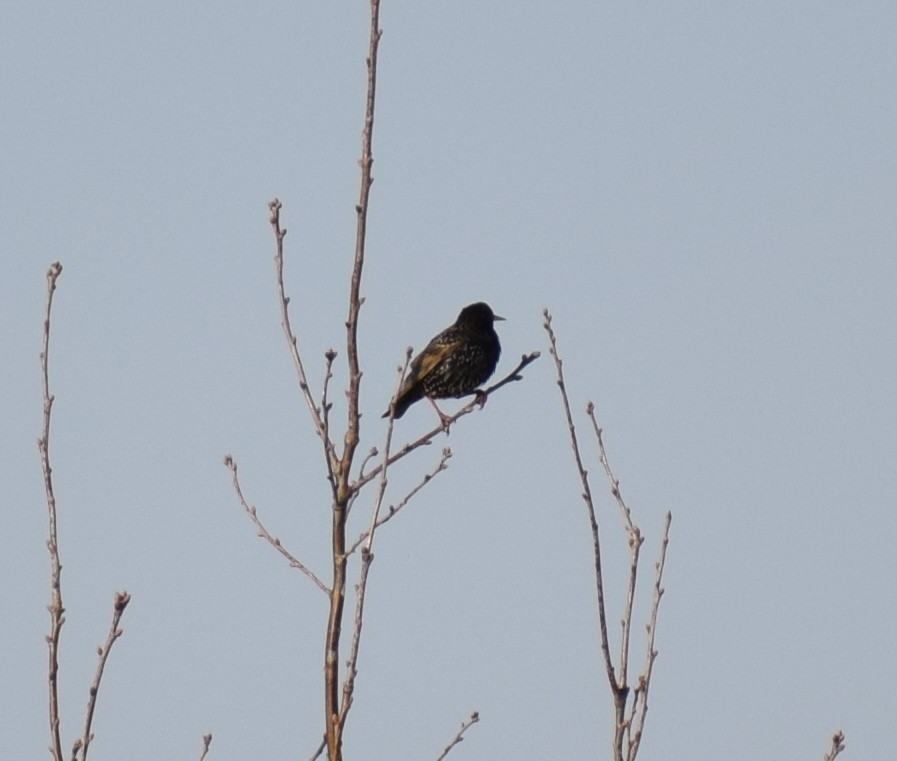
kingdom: Animalia
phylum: Chordata
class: Aves
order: Passeriformes
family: Sturnidae
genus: Sturnus
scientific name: Sturnus vulgaris
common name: Common starling
